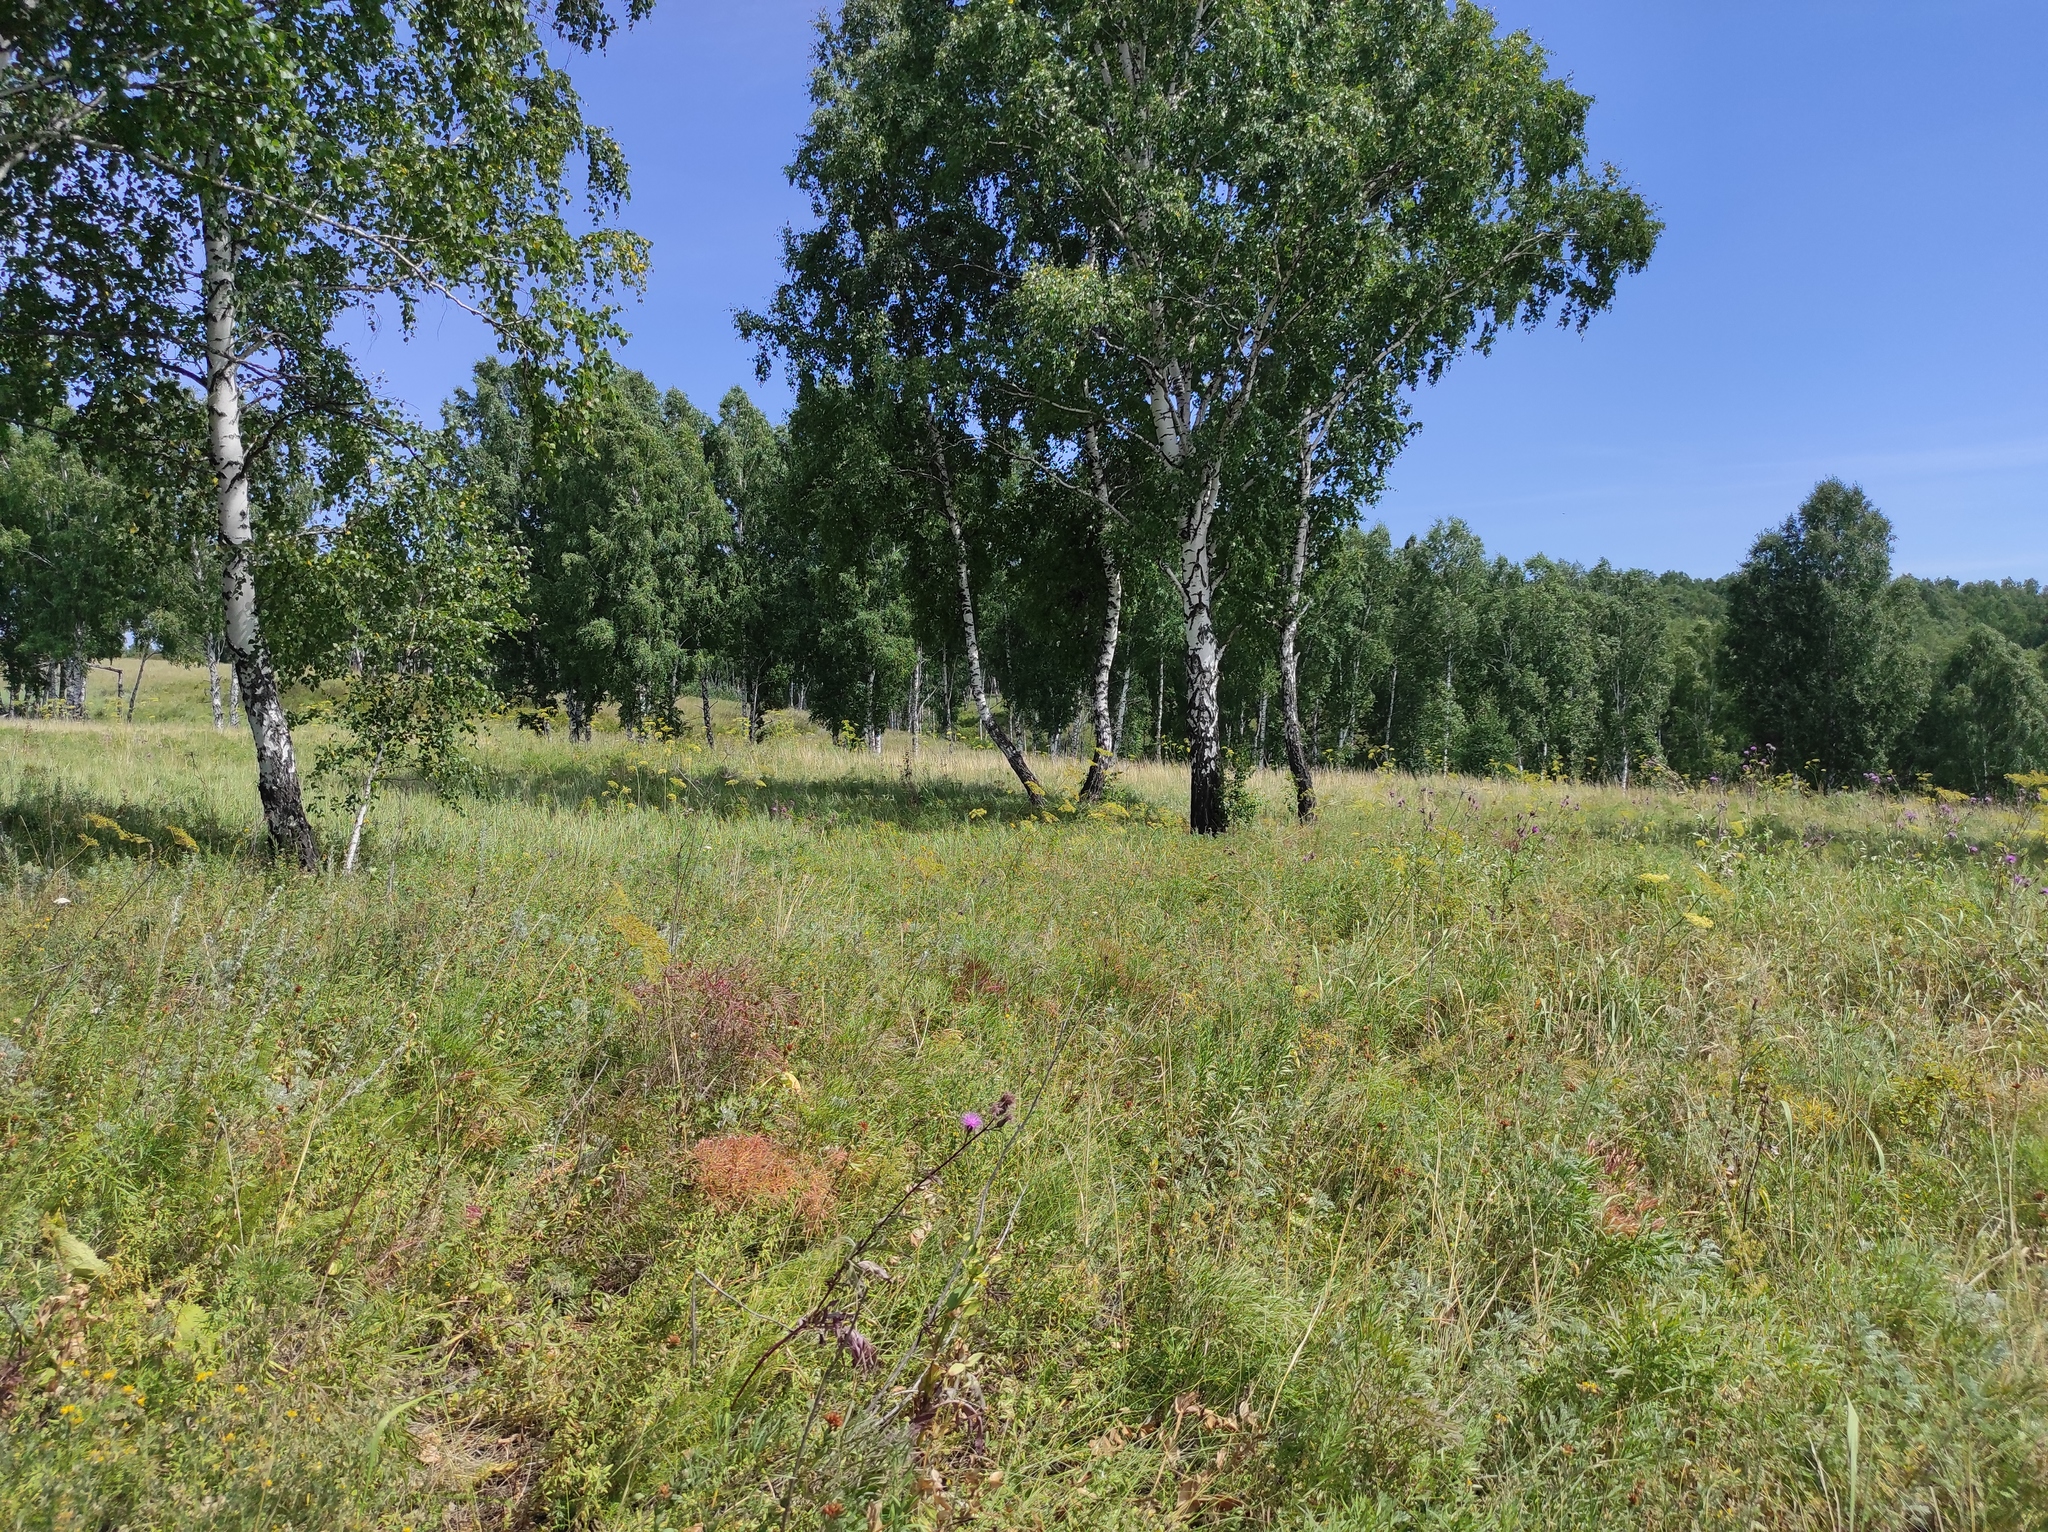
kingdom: Plantae
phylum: Tracheophyta
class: Magnoliopsida
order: Fagales
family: Betulaceae
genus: Betula
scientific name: Betula pendula
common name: Silver birch
